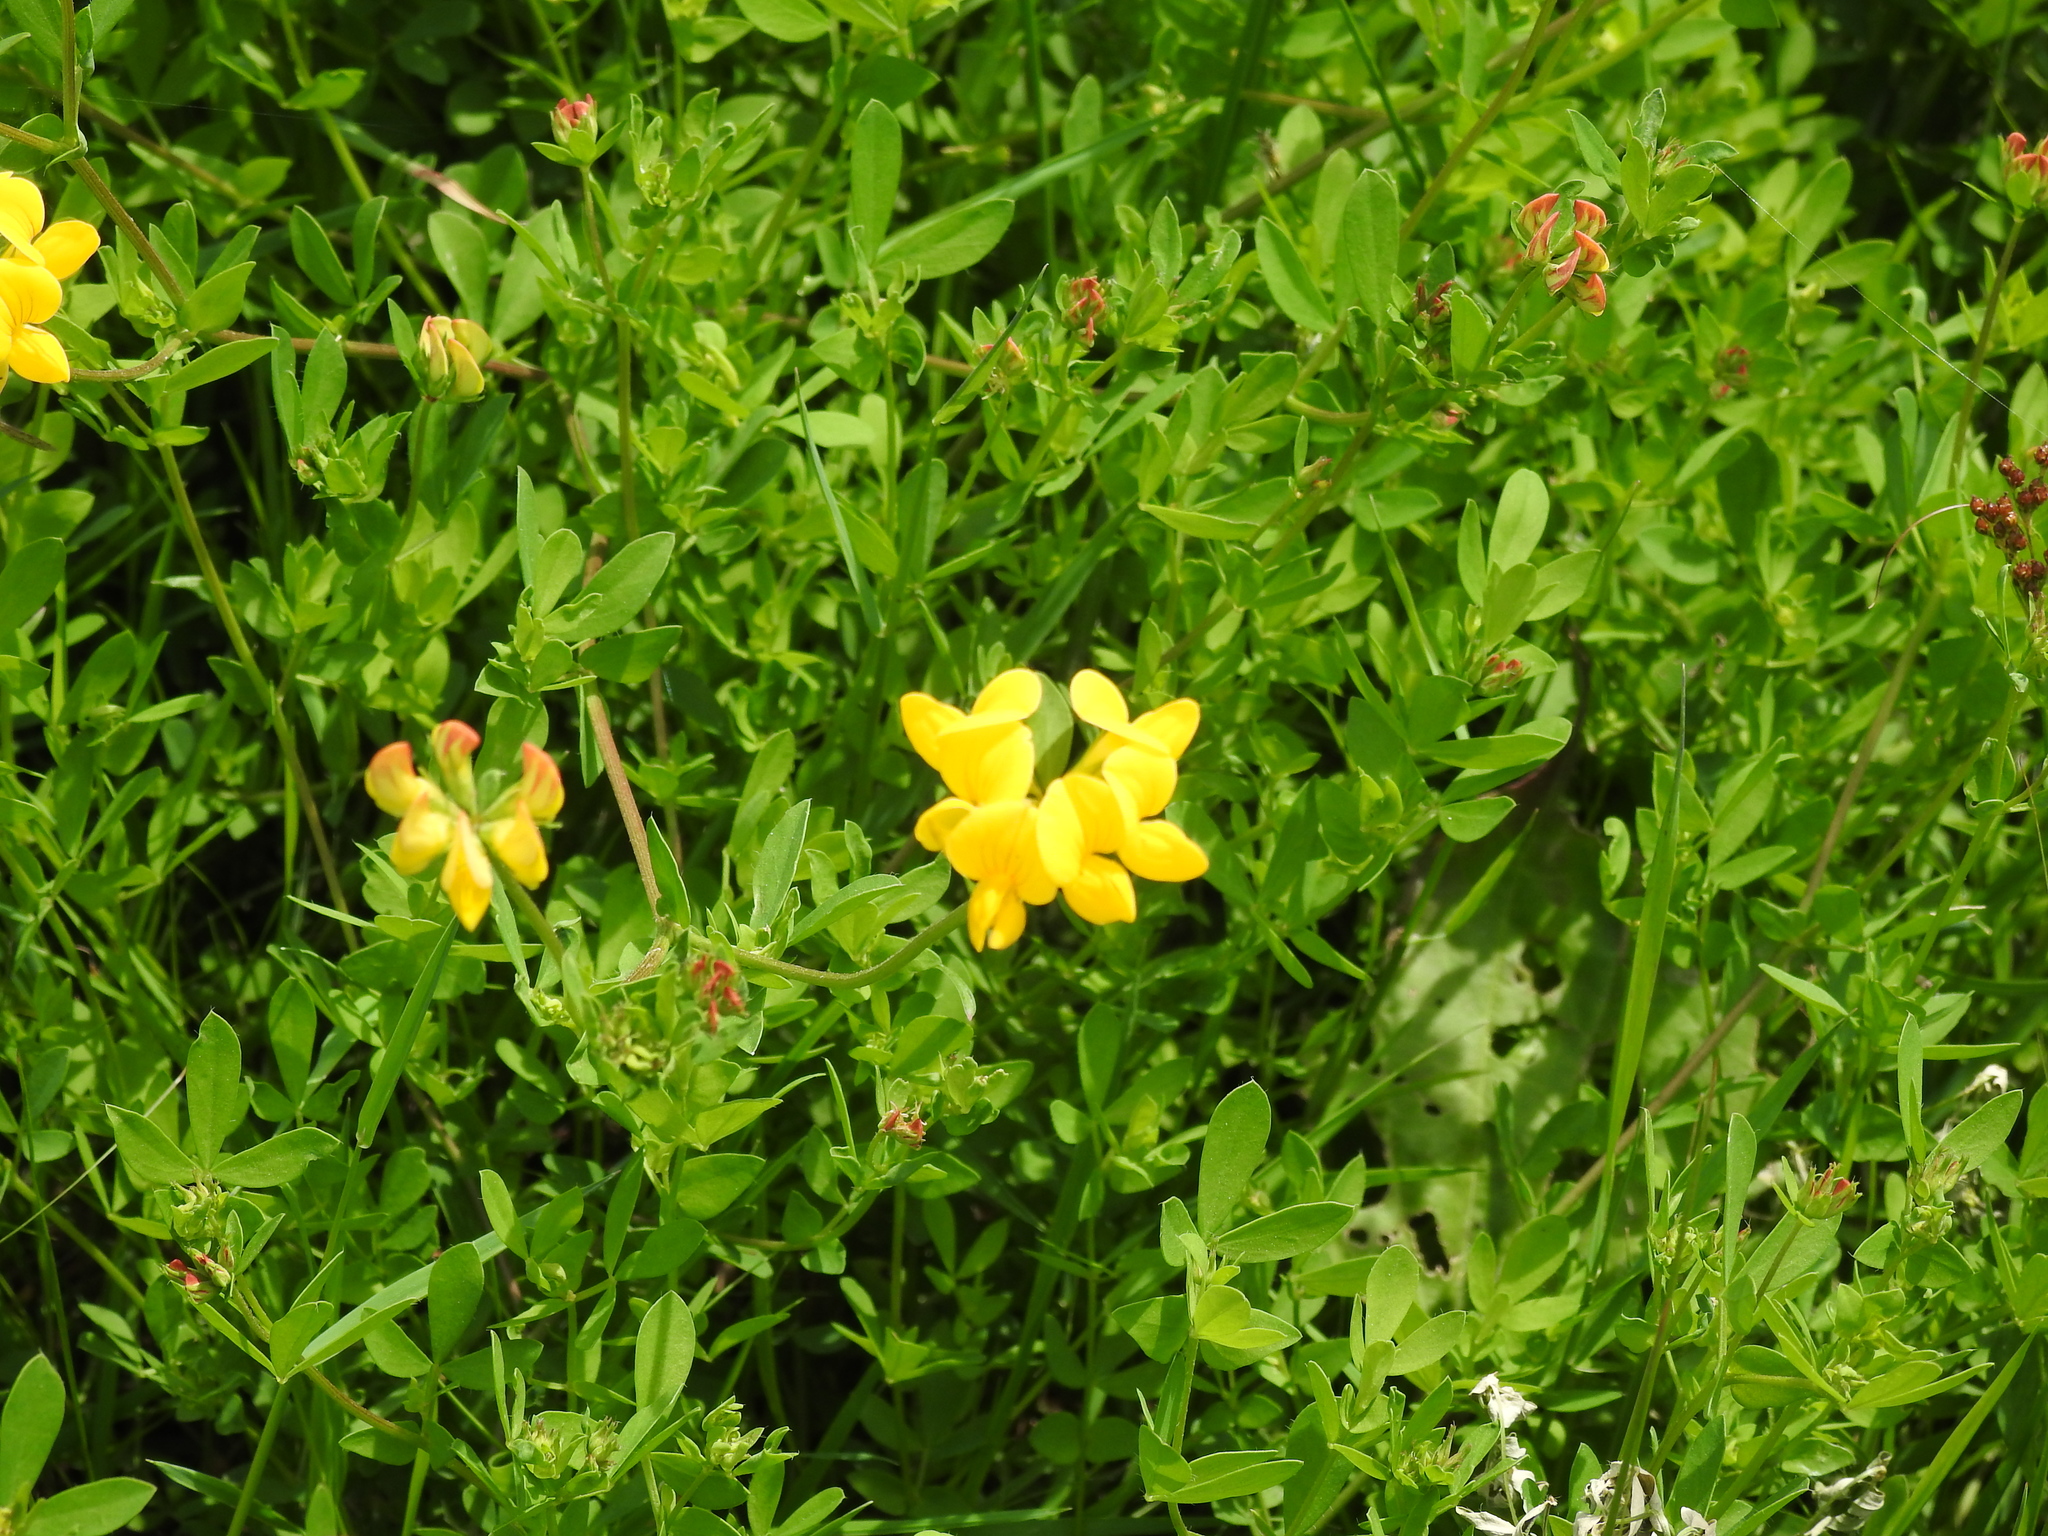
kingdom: Plantae
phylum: Tracheophyta
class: Magnoliopsida
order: Fabales
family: Fabaceae
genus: Lotus
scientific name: Lotus corniculatus
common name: Common bird's-foot-trefoil
